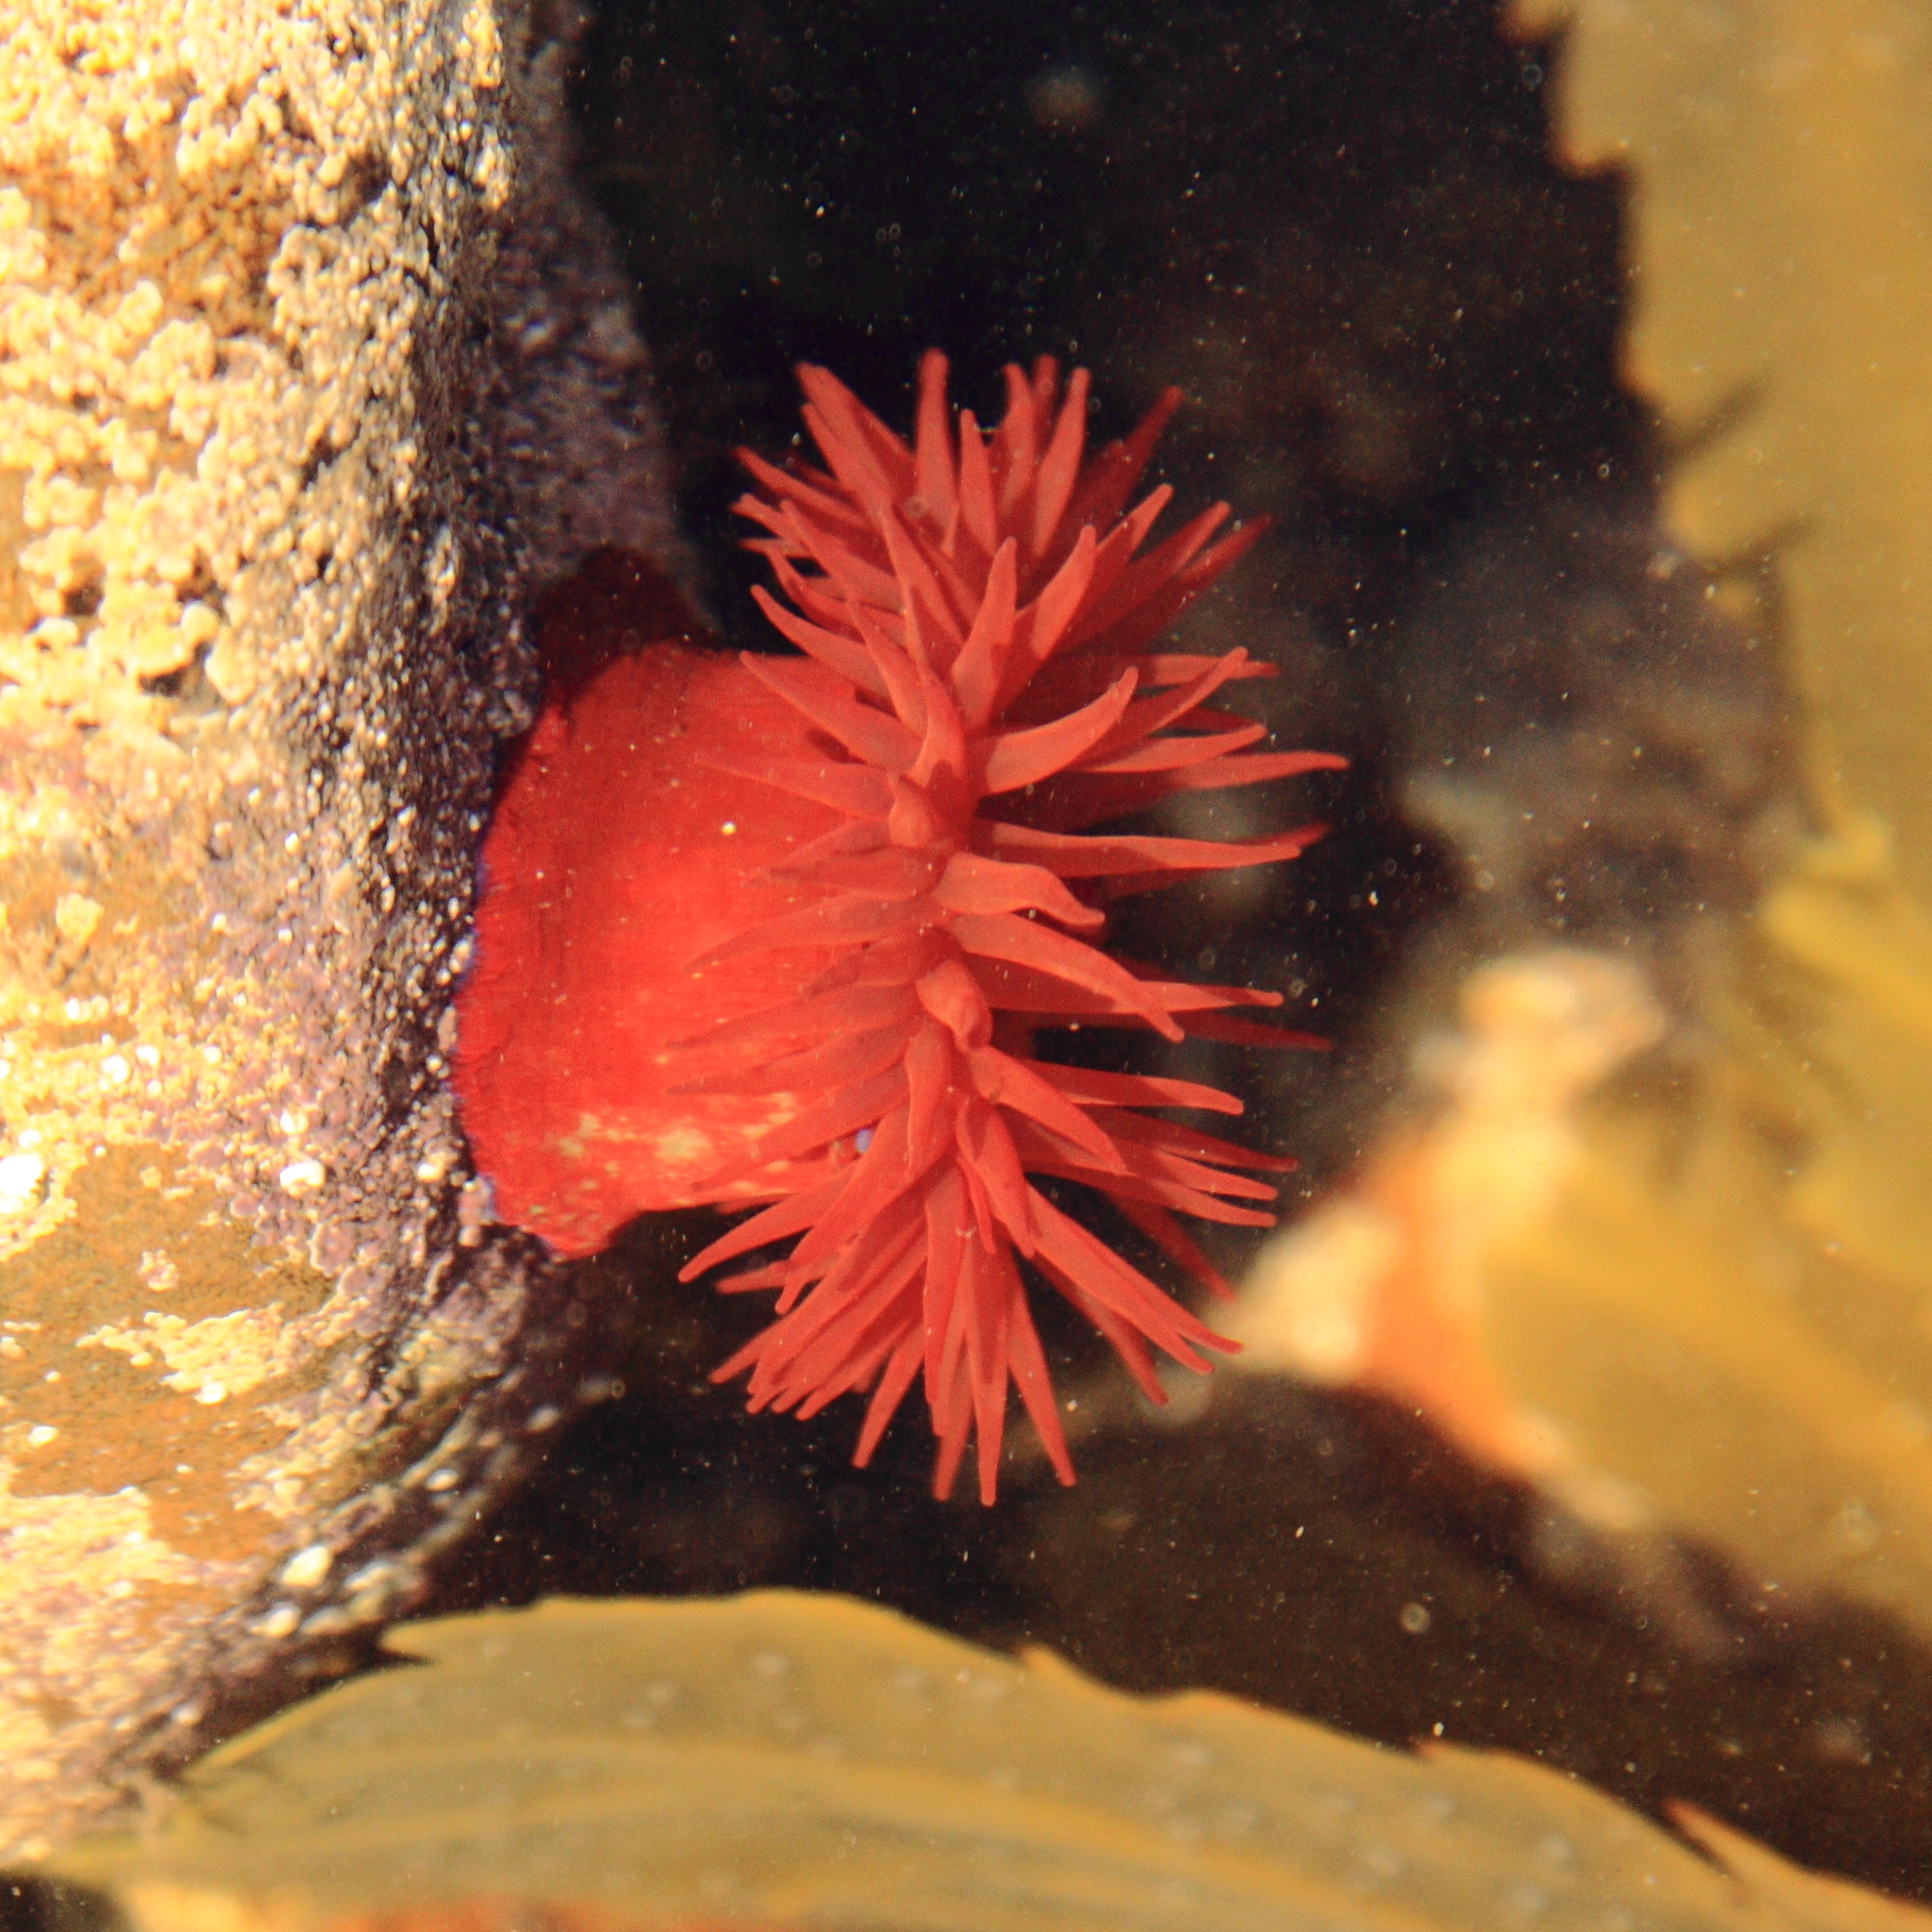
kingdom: Animalia
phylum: Cnidaria
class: Anthozoa
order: Actiniaria
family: Actiniidae
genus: Actinia
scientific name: Actinia equina
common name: Beadlet anemone
